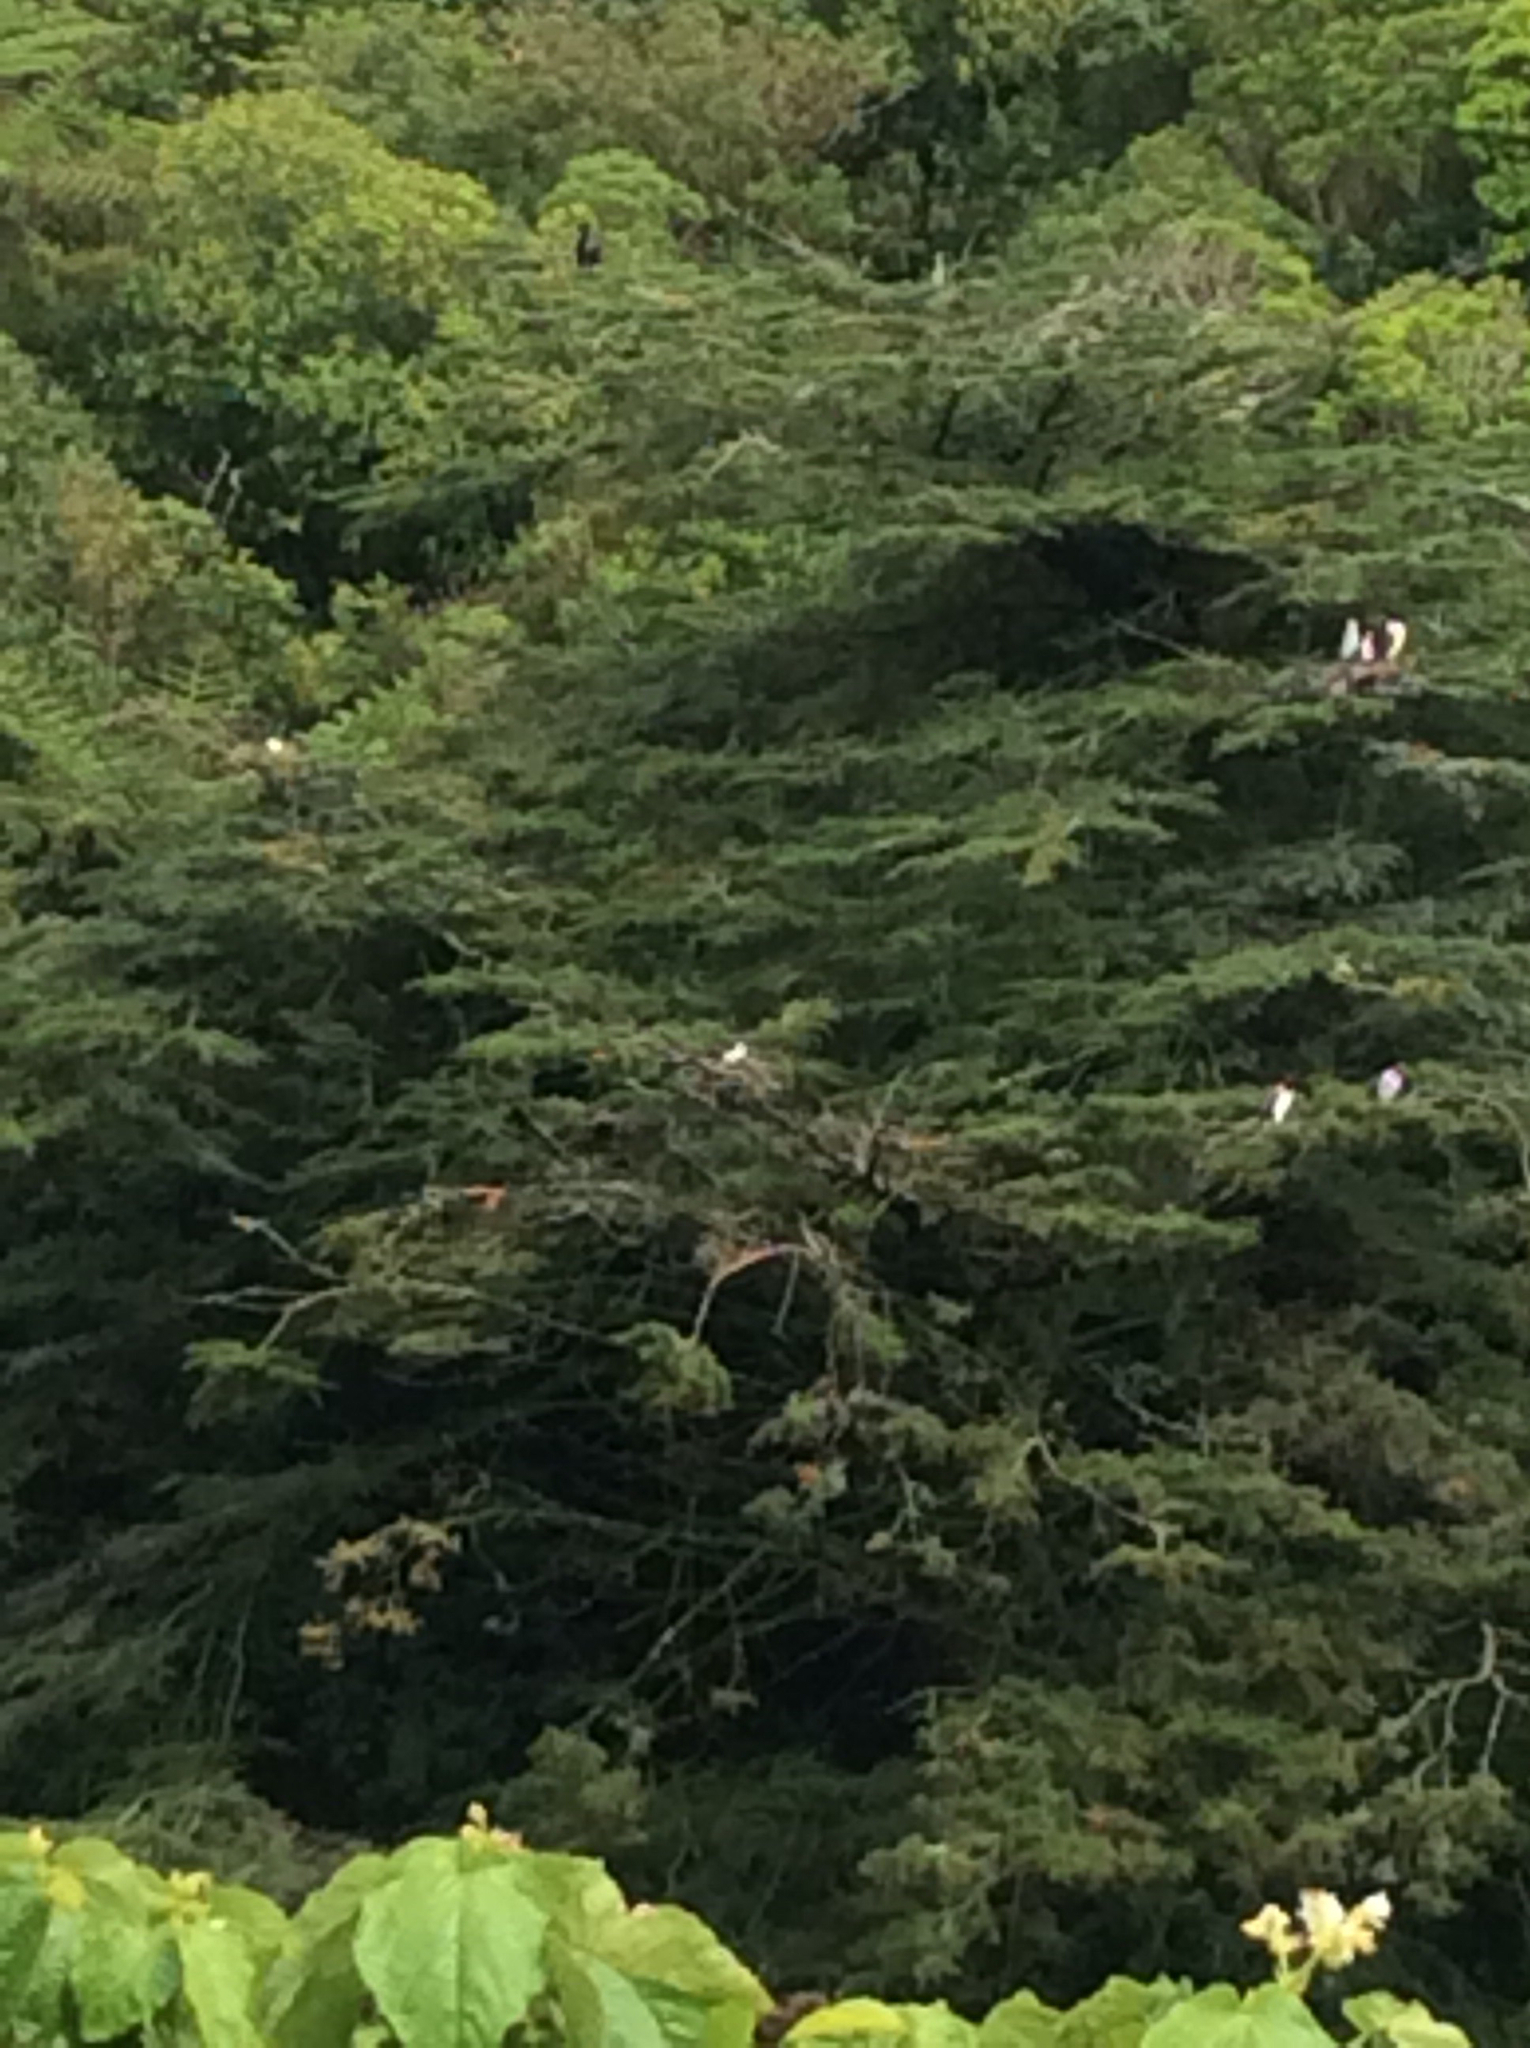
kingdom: Animalia
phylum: Chordata
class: Aves
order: Suliformes
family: Phalacrocoracidae
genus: Phalacrocorax
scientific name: Phalacrocorax varius
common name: Pied cormorant
